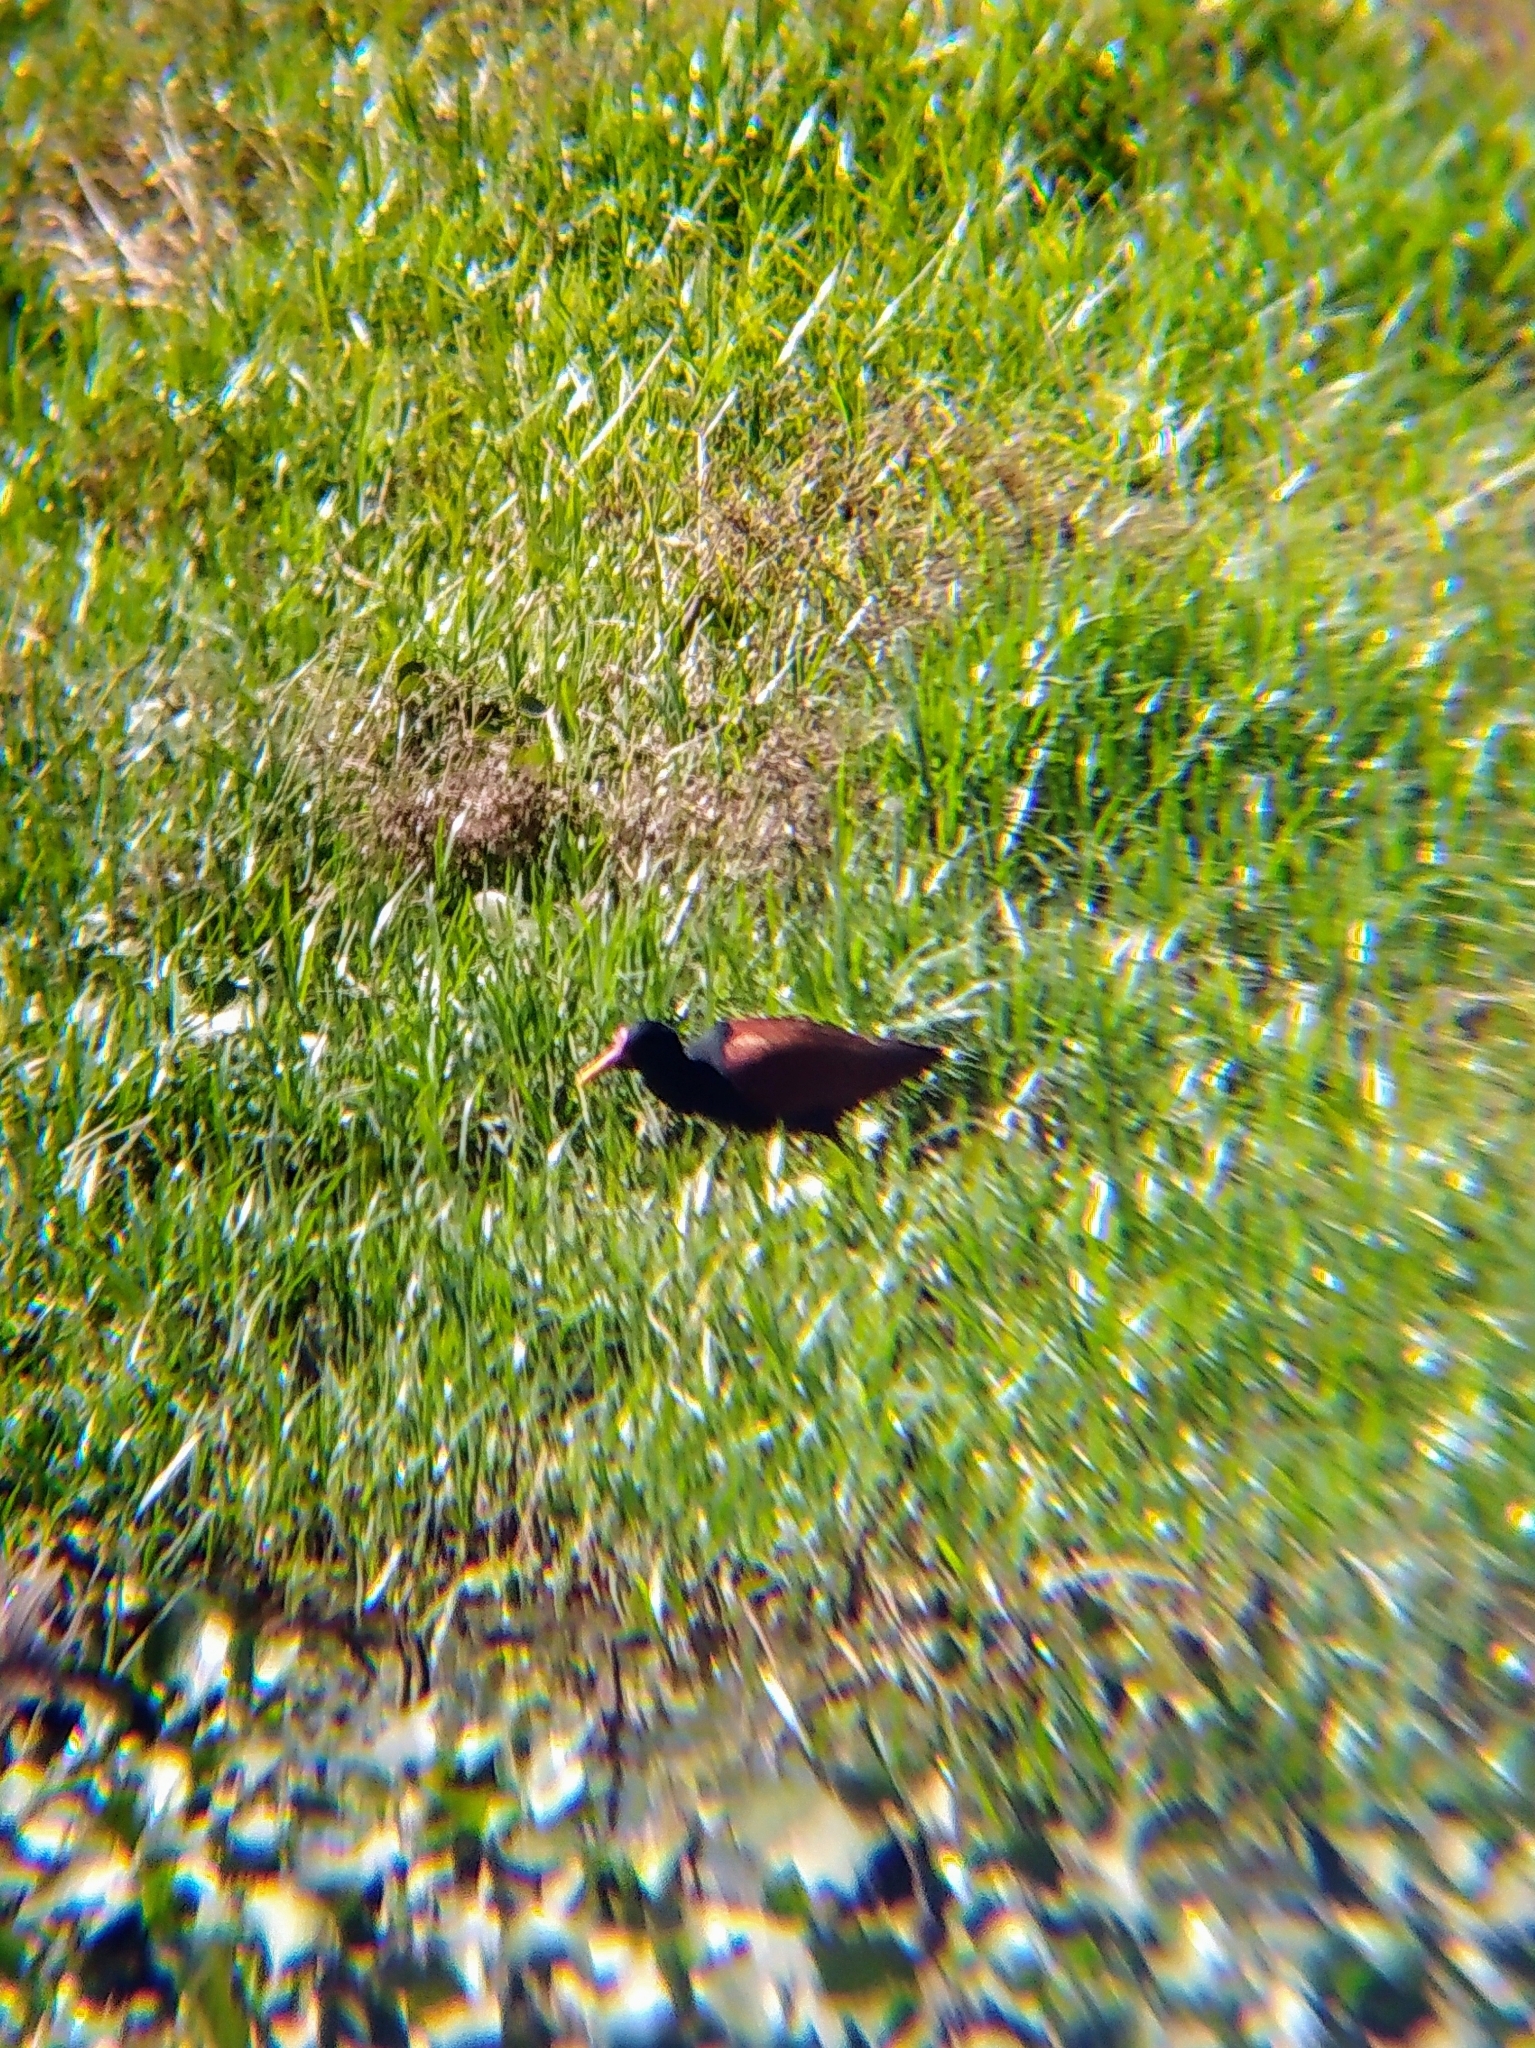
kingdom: Animalia
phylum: Chordata
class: Aves
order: Charadriiformes
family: Jacanidae
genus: Jacana
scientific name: Jacana jacana
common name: Wattled jacana
